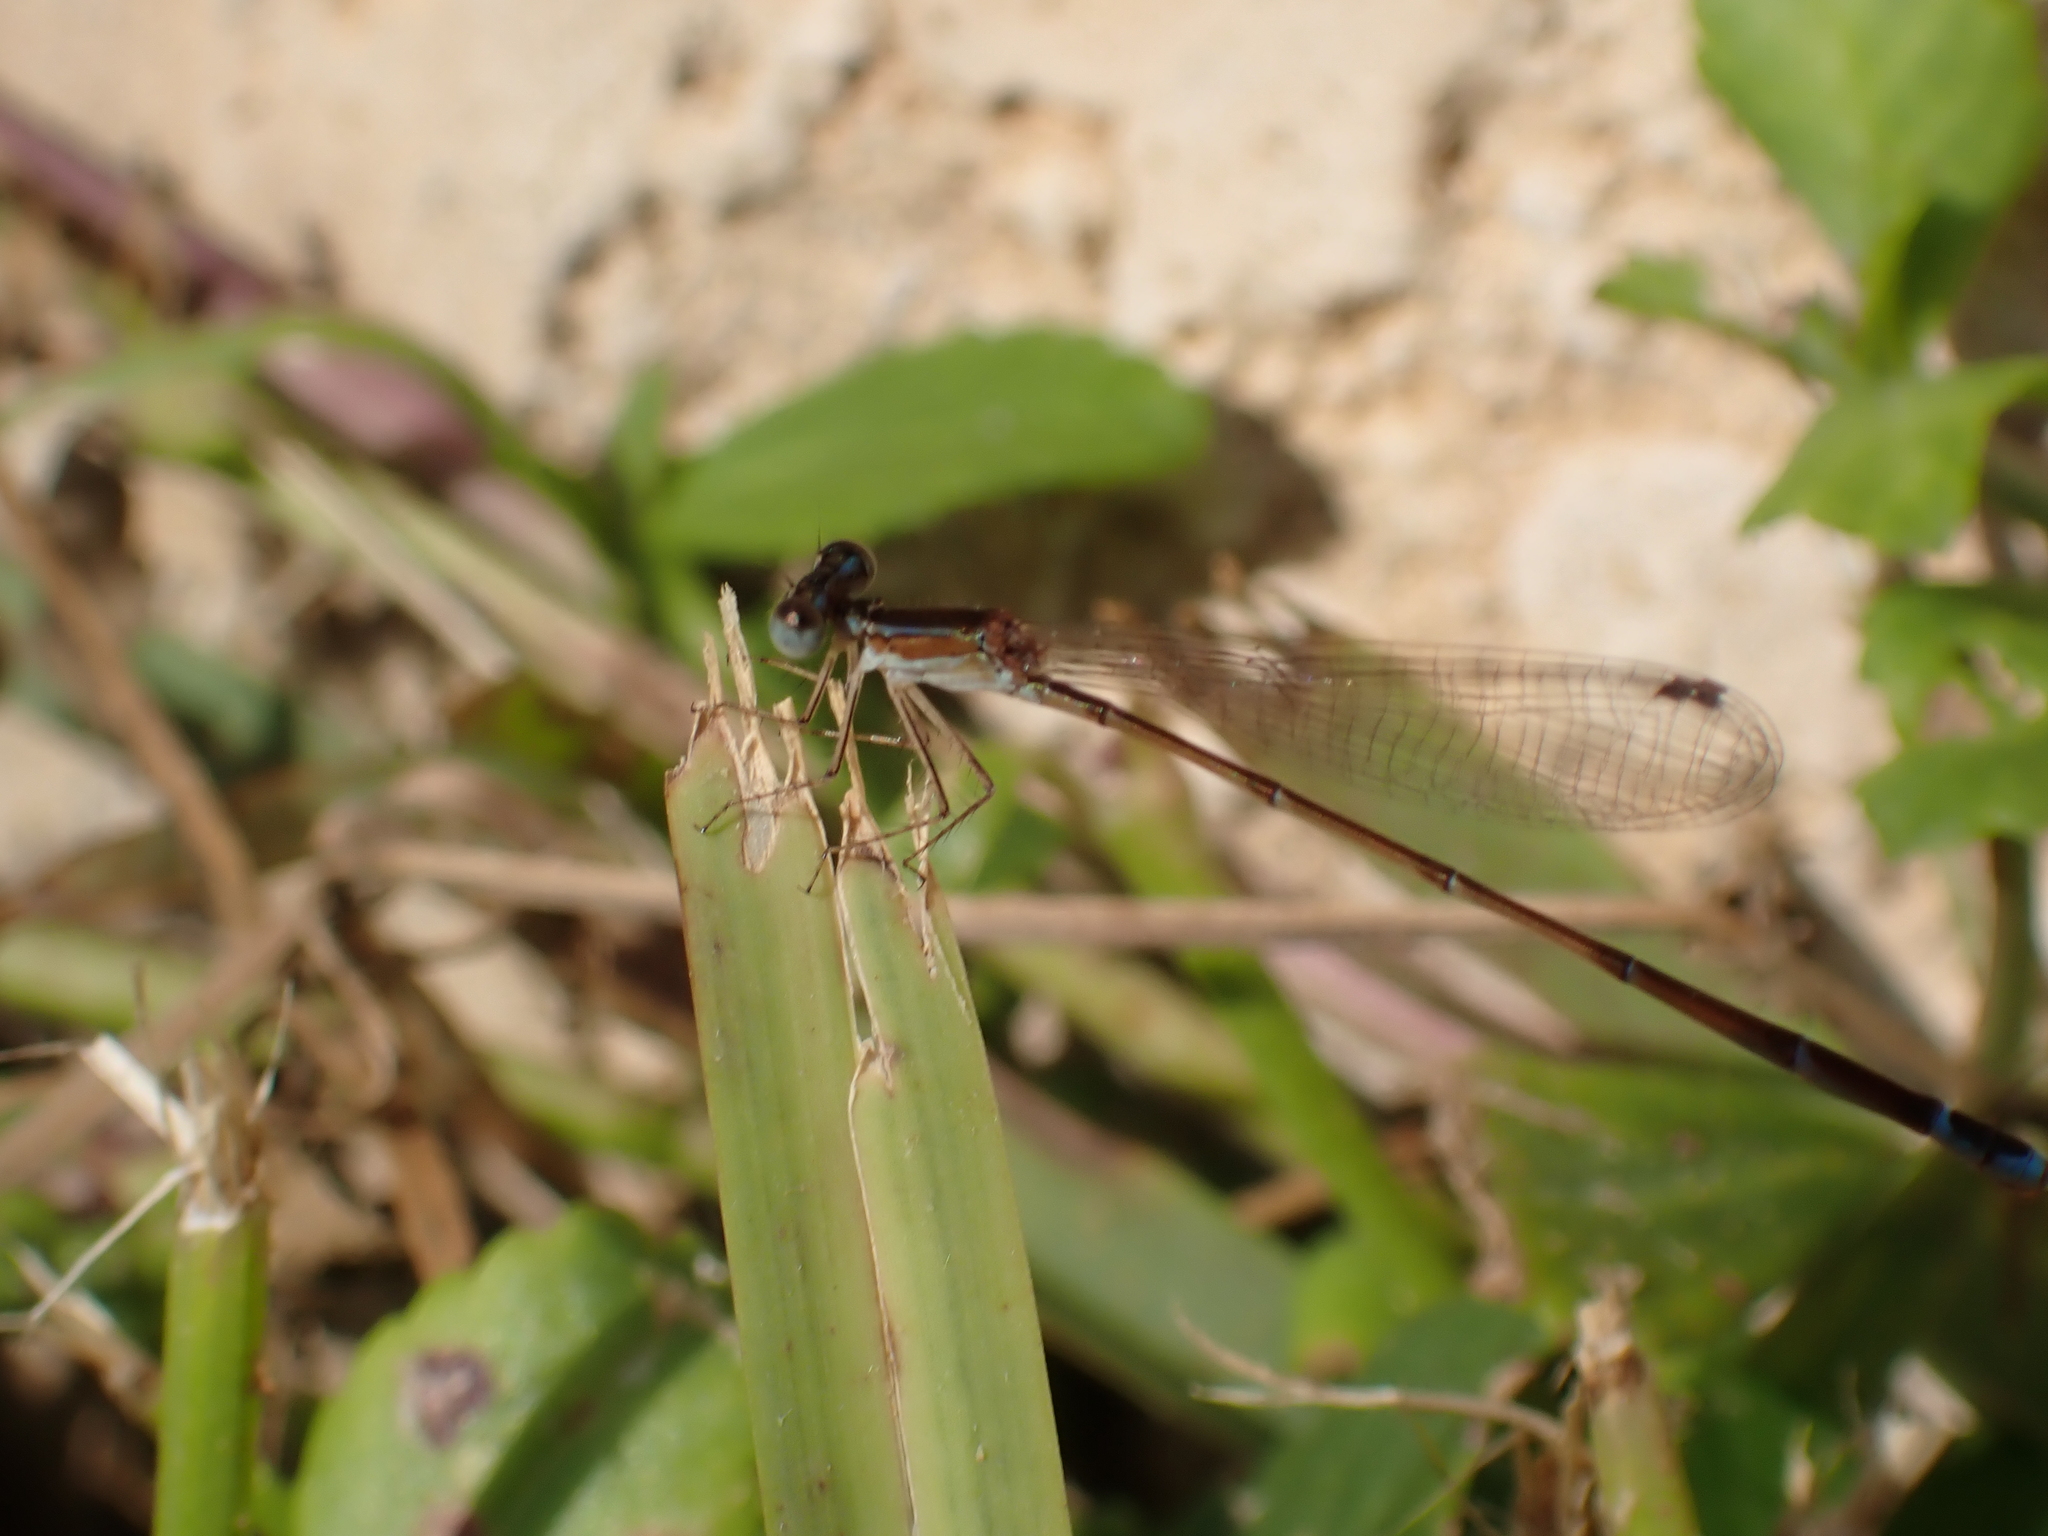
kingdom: Animalia
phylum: Arthropoda
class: Insecta
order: Odonata
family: Coenagrionidae
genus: Nehalennia
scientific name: Nehalennia pallidula
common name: Everglades sprite
